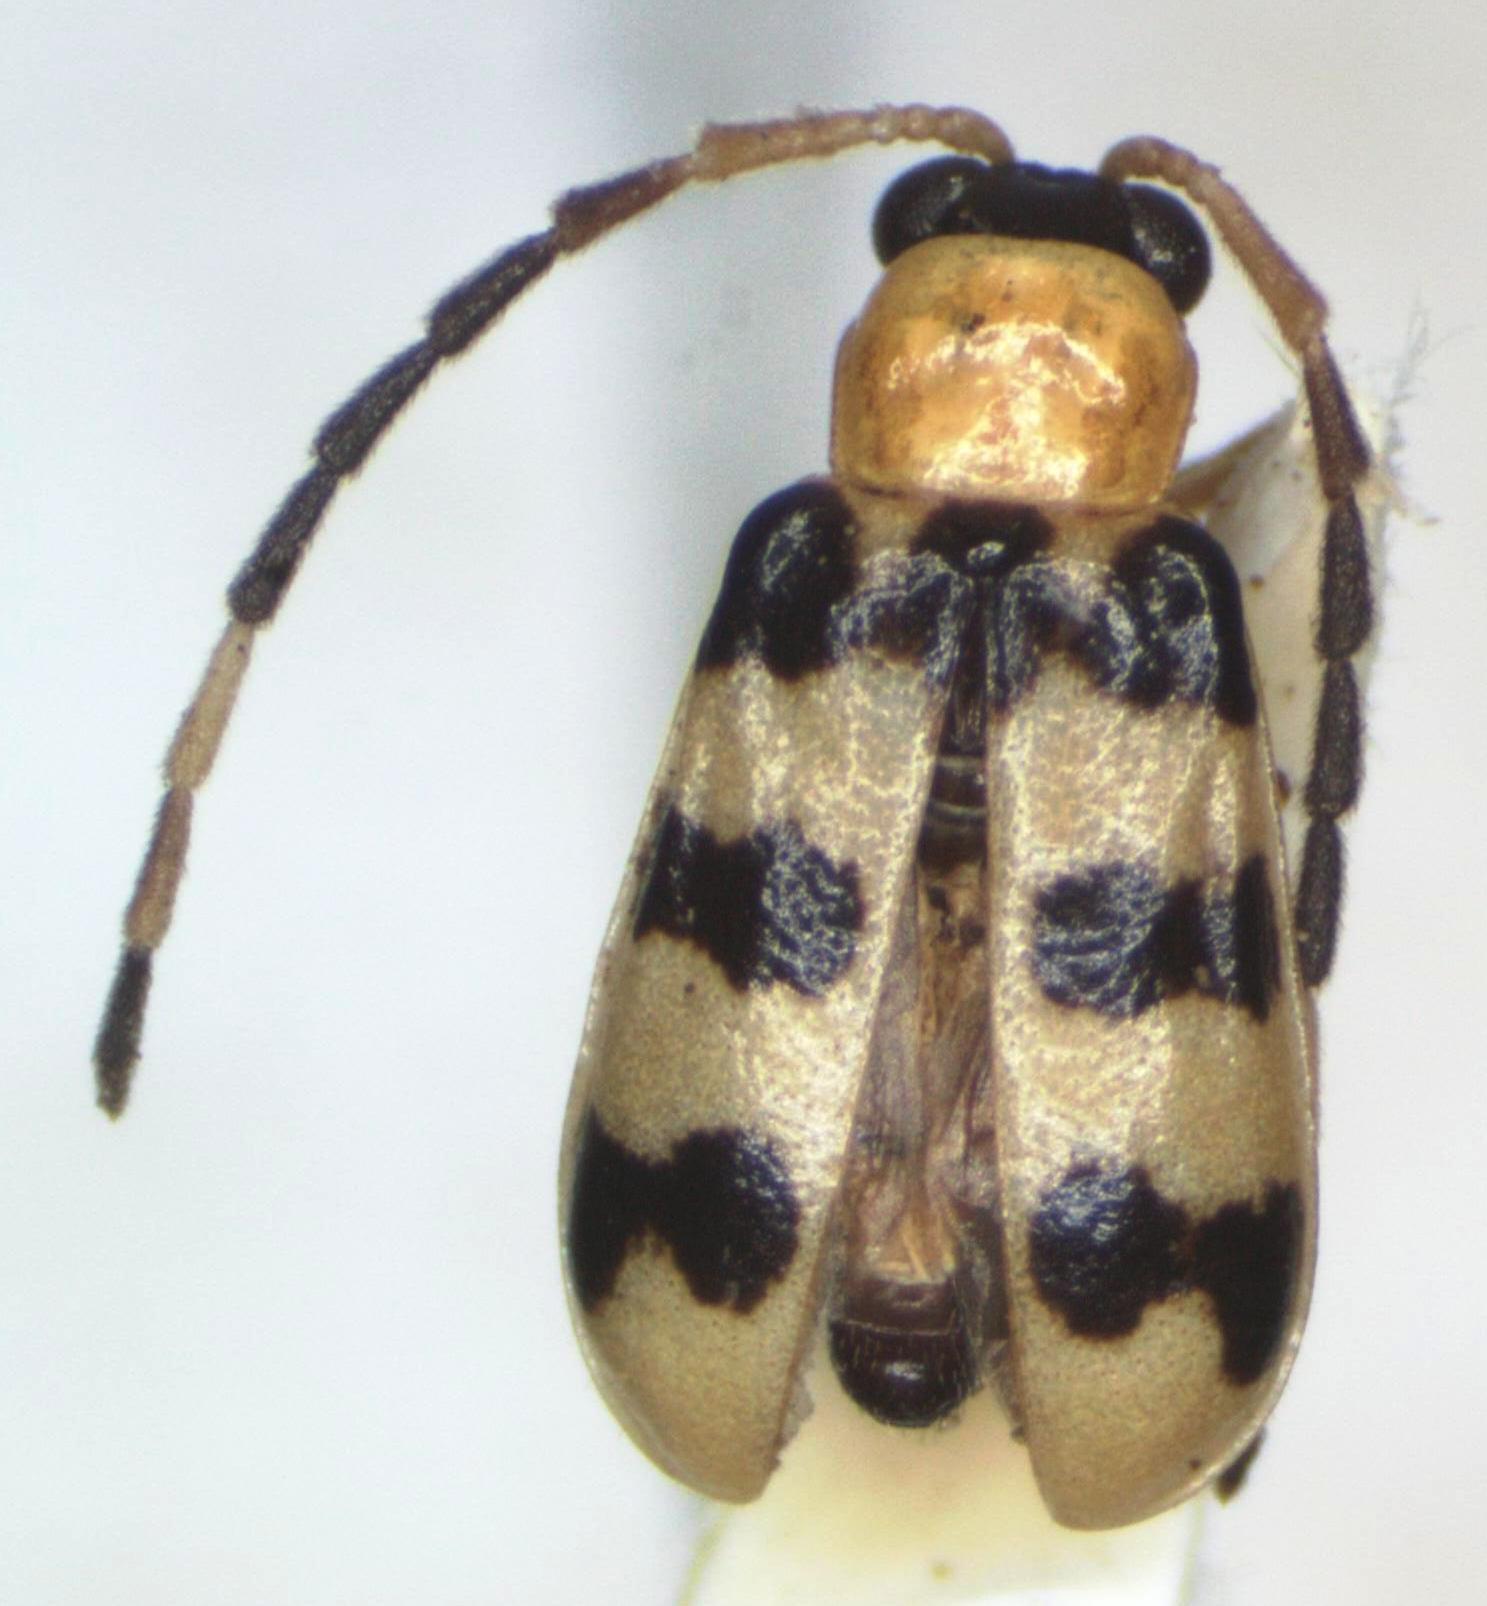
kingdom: Animalia
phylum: Arthropoda
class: Insecta
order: Coleoptera
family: Chrysomelidae
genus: Diabrotica
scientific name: Diabrotica
